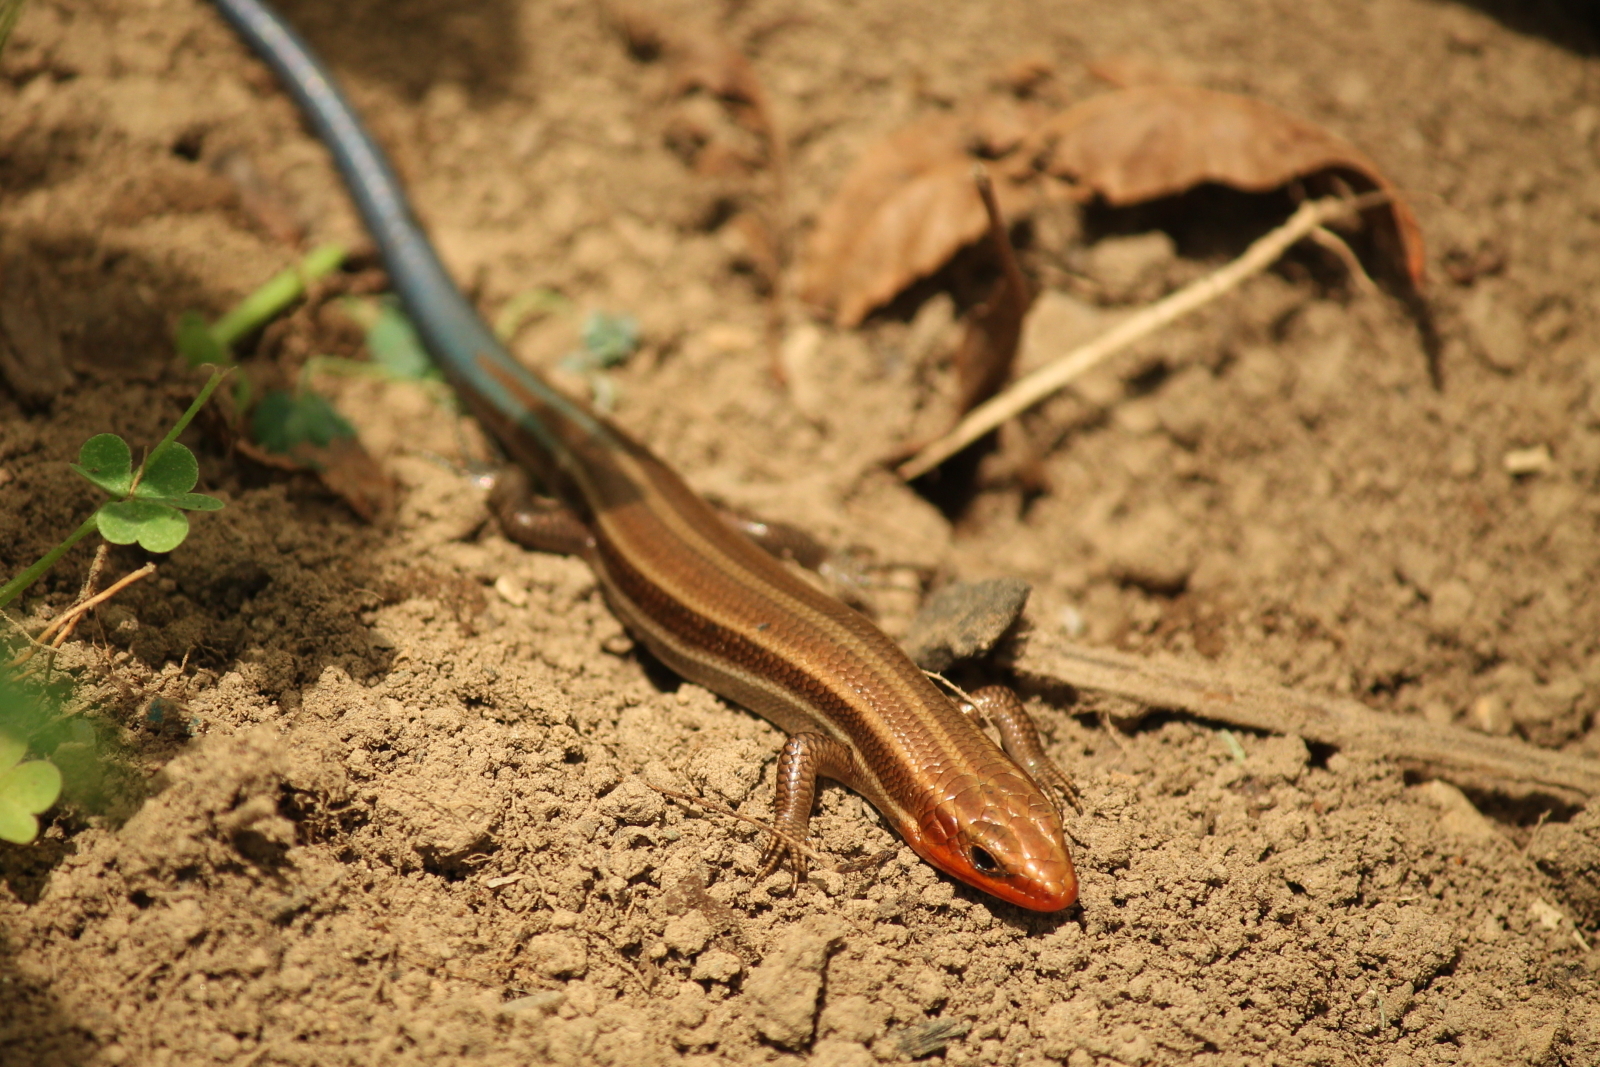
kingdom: Animalia
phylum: Chordata
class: Squamata
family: Scincidae
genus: Plestiodon
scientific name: Plestiodon fasciatus
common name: Five-lined skink
